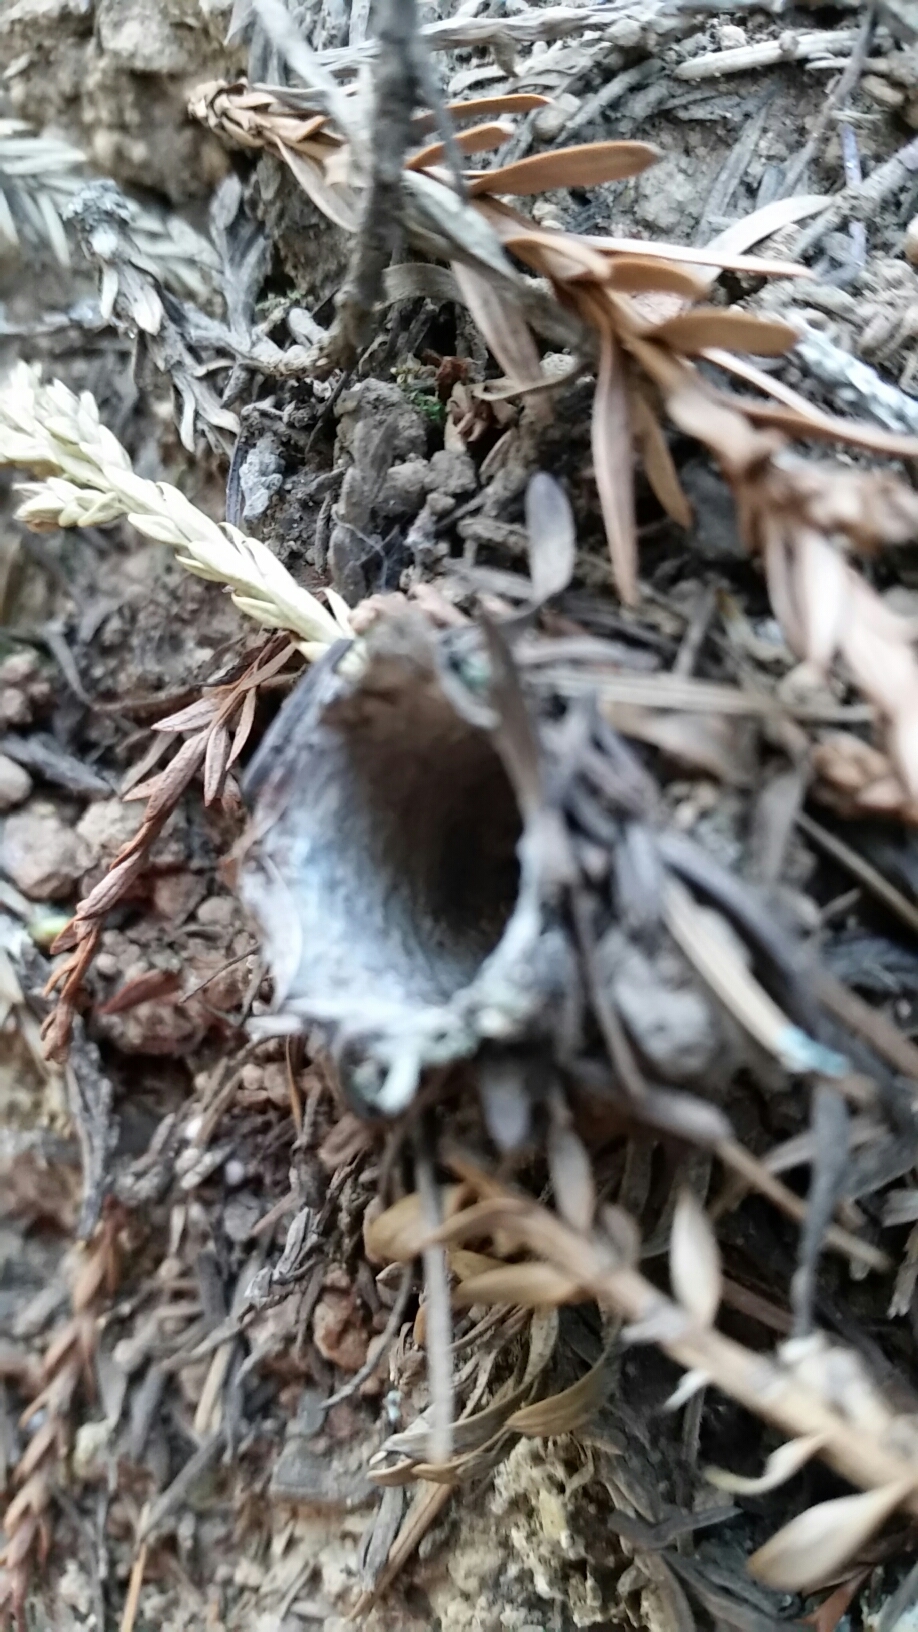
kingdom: Animalia
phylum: Arthropoda
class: Arachnida
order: Araneae
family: Antrodiaetidae
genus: Atypoides
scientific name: Atypoides riversi
